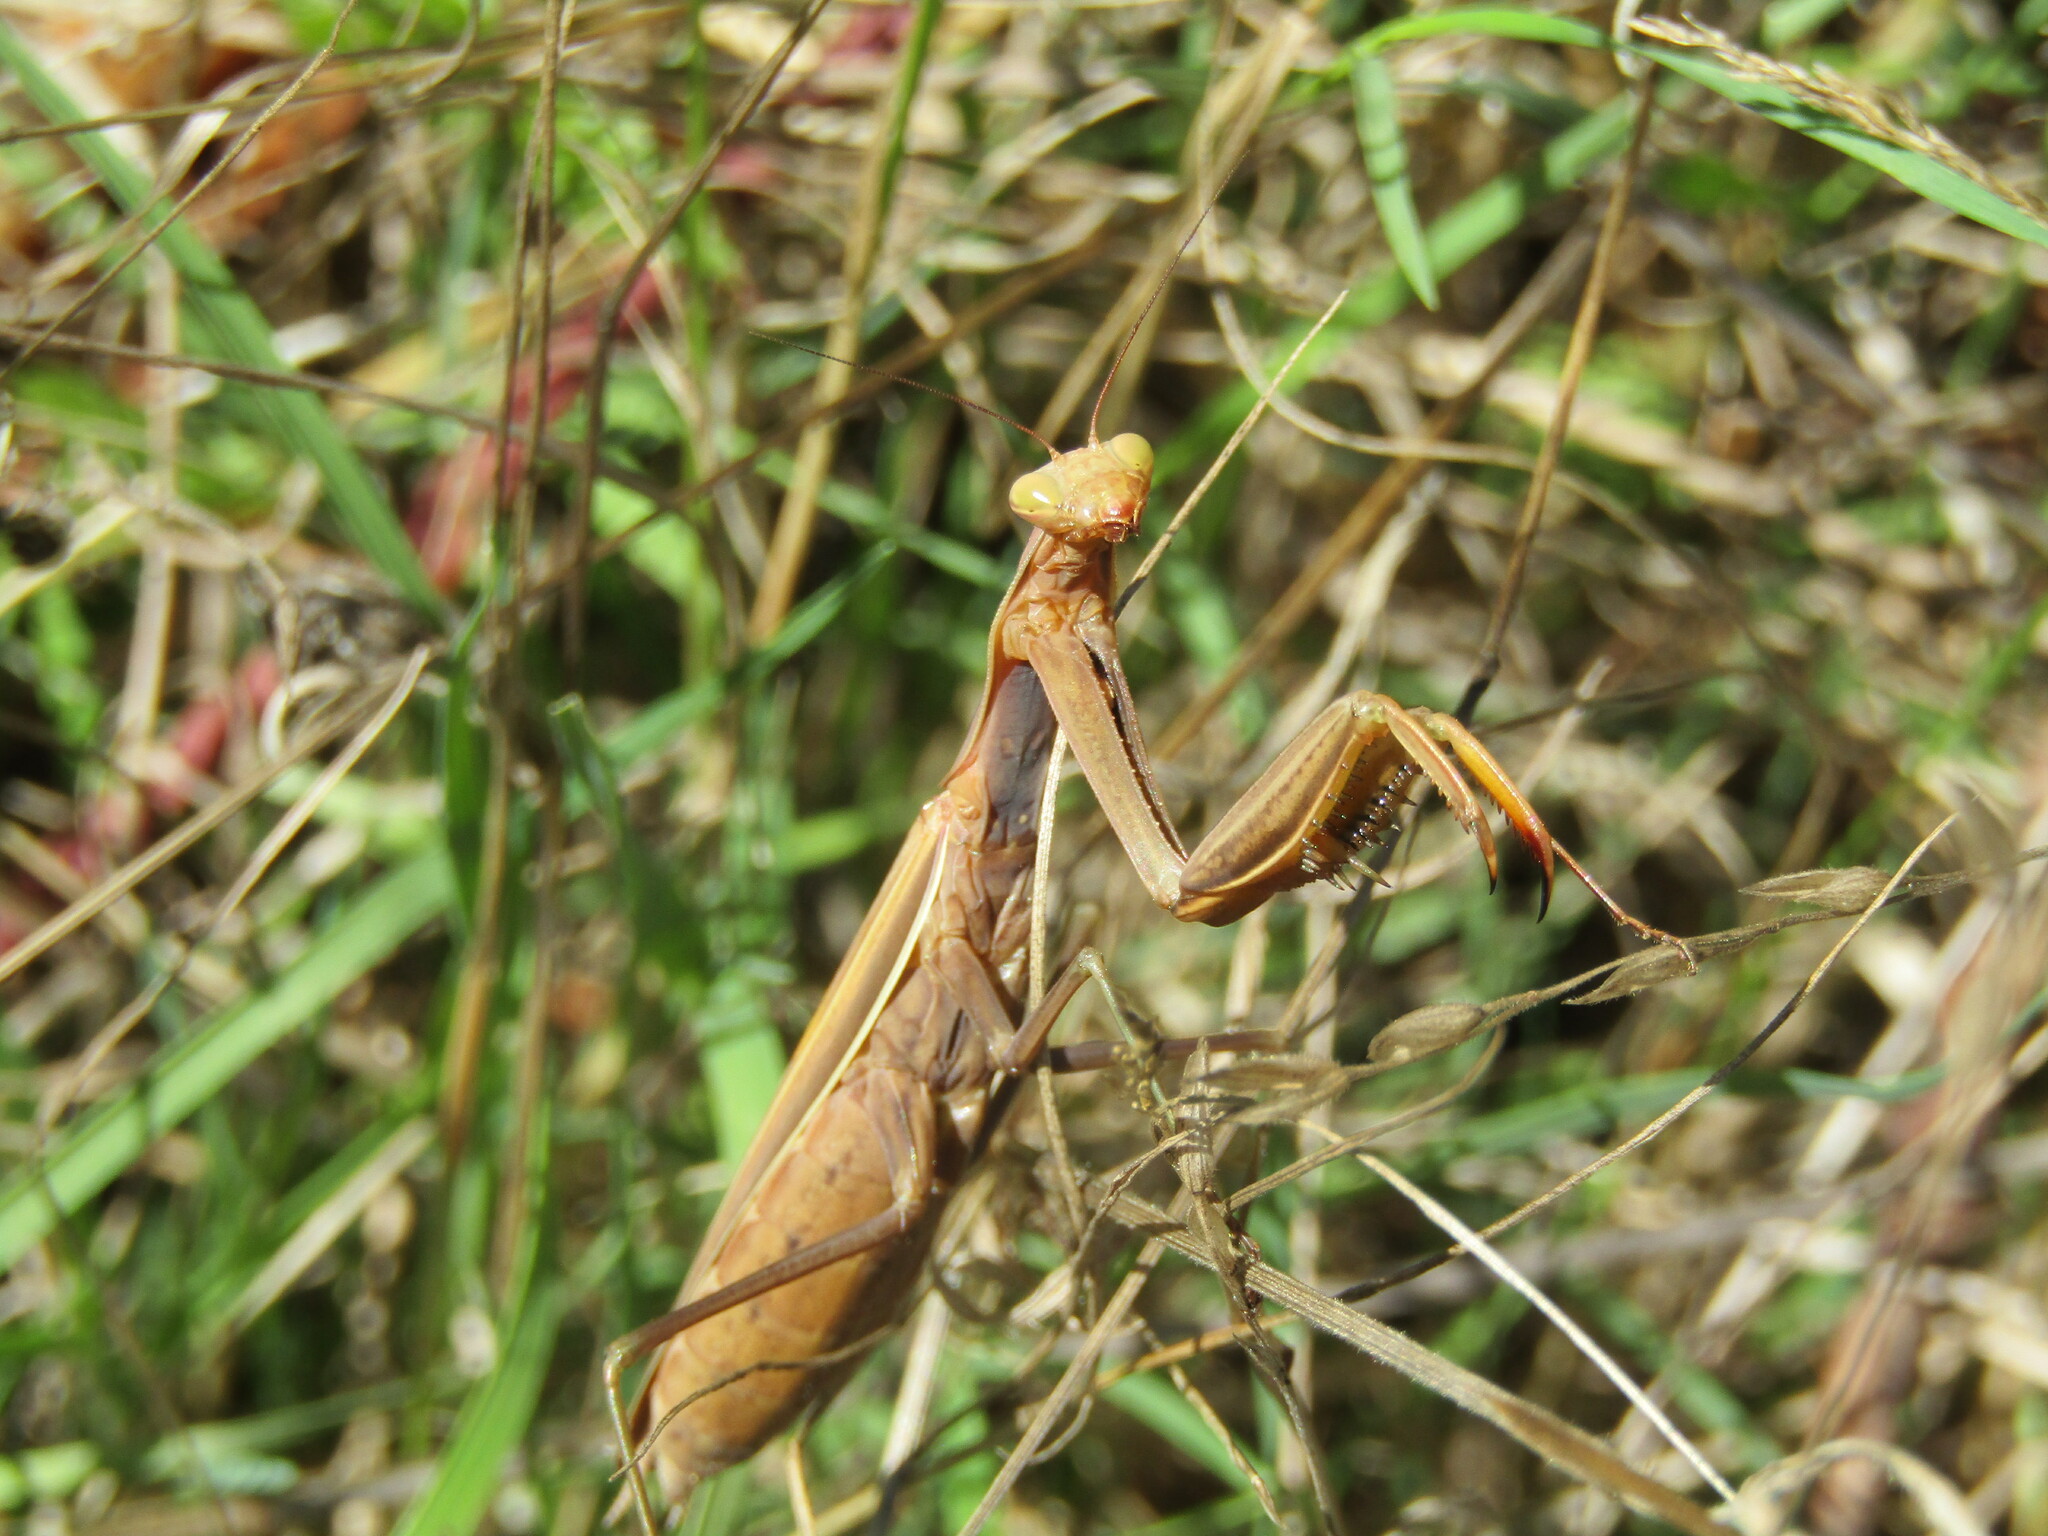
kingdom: Animalia
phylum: Arthropoda
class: Insecta
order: Mantodea
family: Mantidae
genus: Mantis
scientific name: Mantis religiosa
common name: Praying mantis
